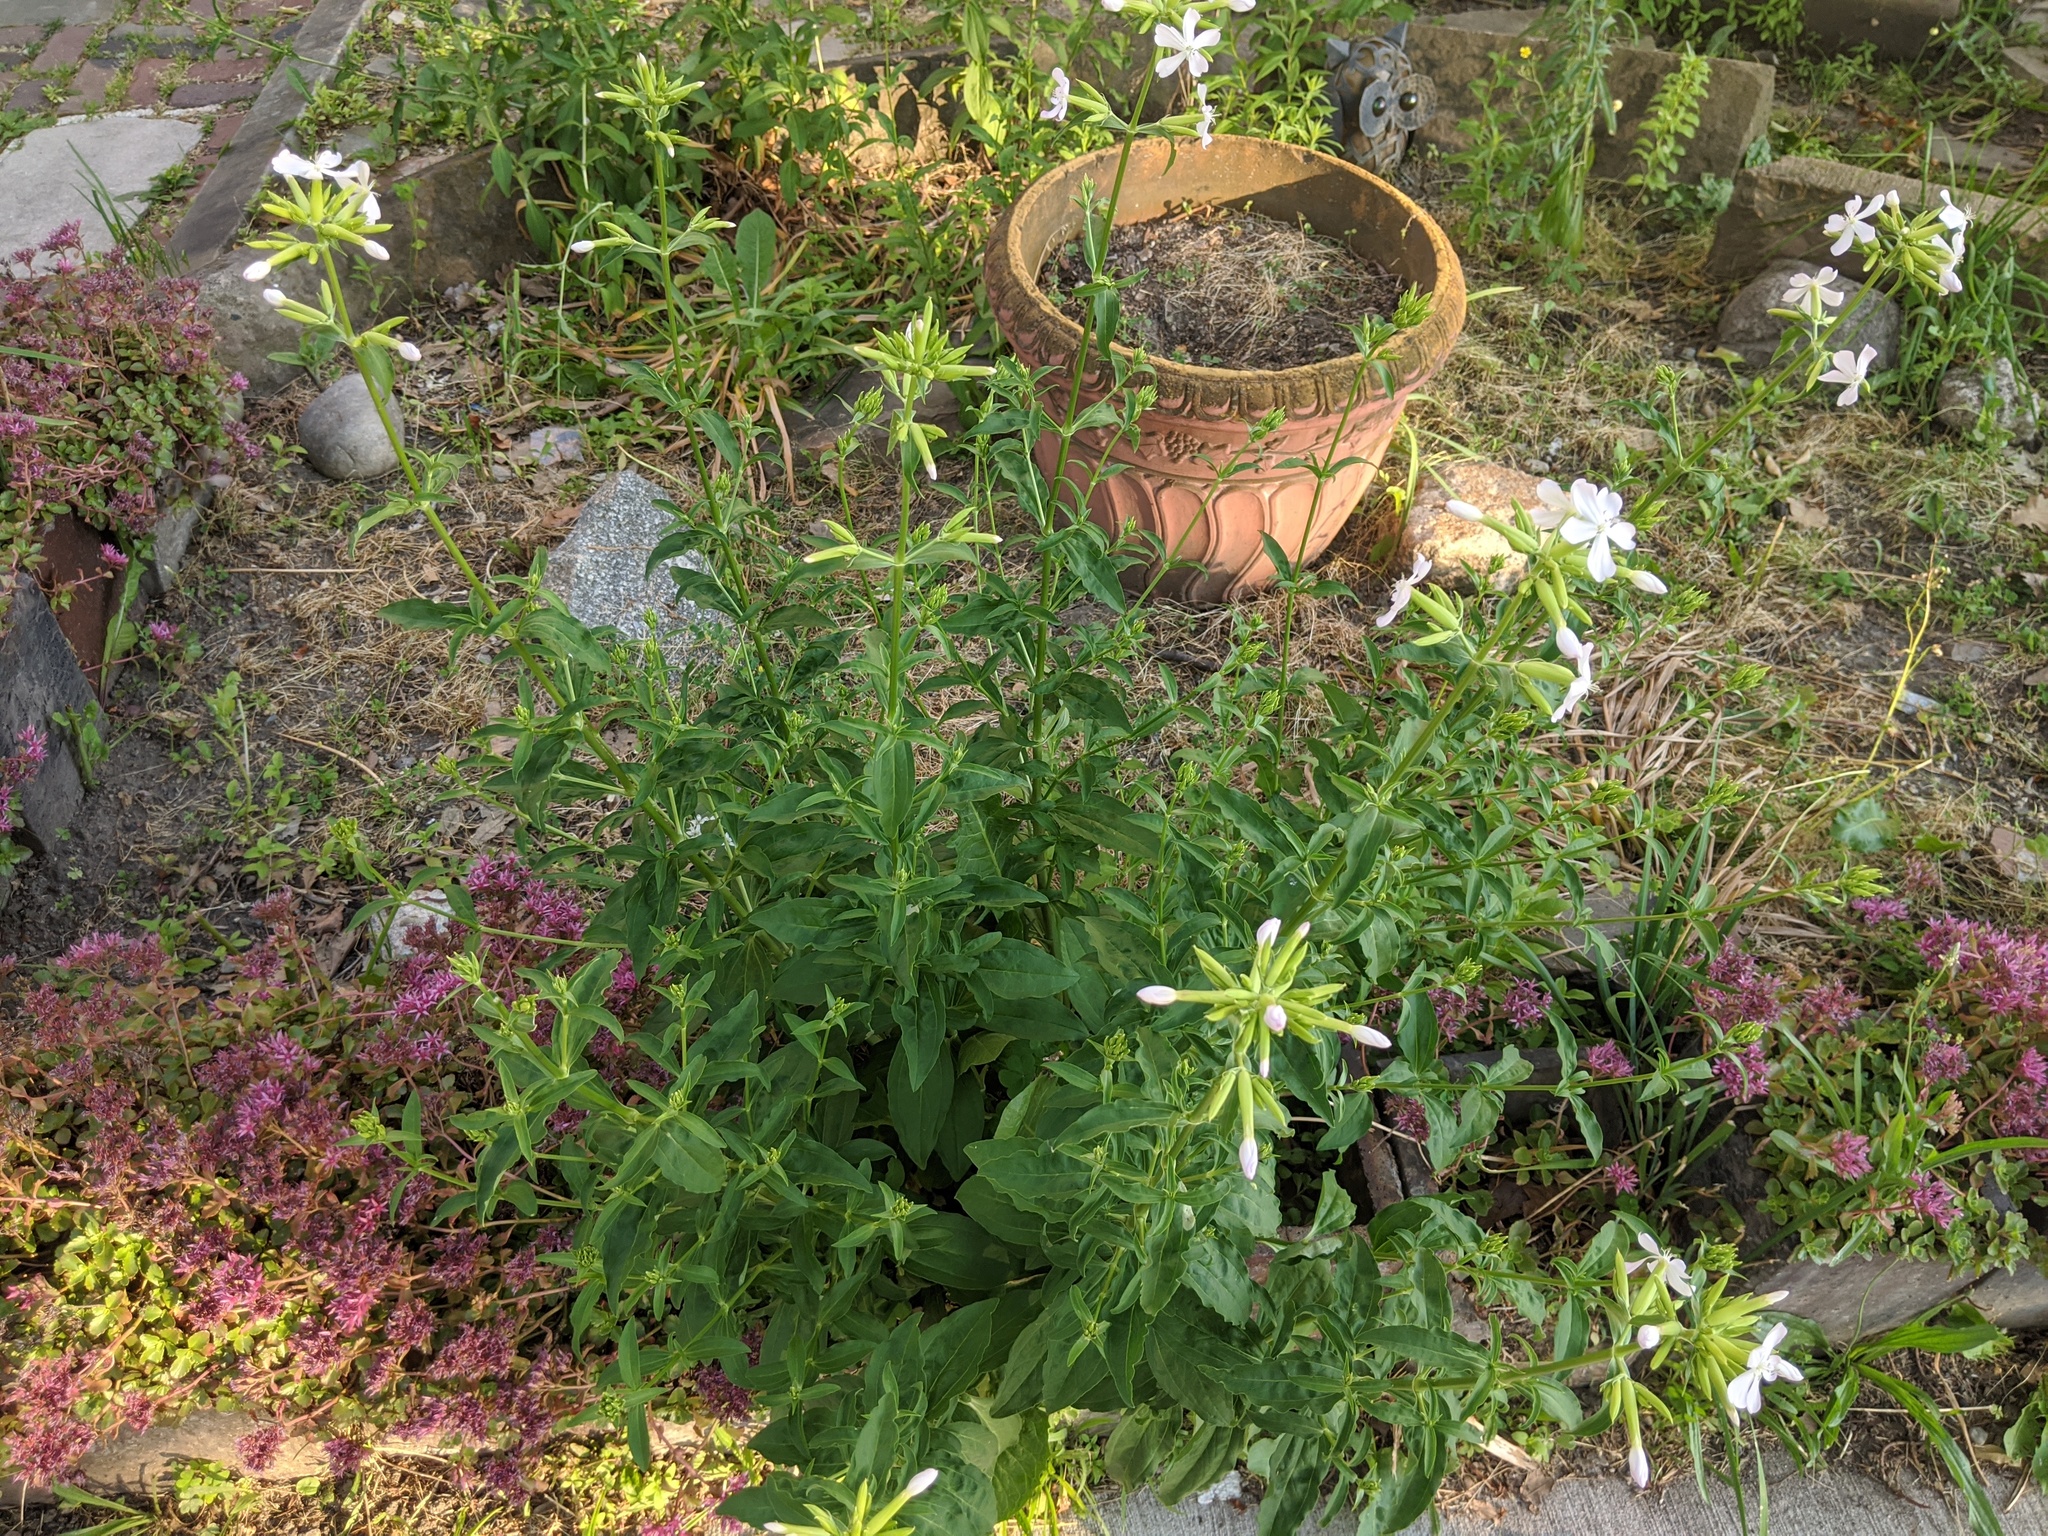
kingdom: Plantae
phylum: Tracheophyta
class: Magnoliopsida
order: Caryophyllales
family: Caryophyllaceae
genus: Saponaria
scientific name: Saponaria officinalis
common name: Soapwort
